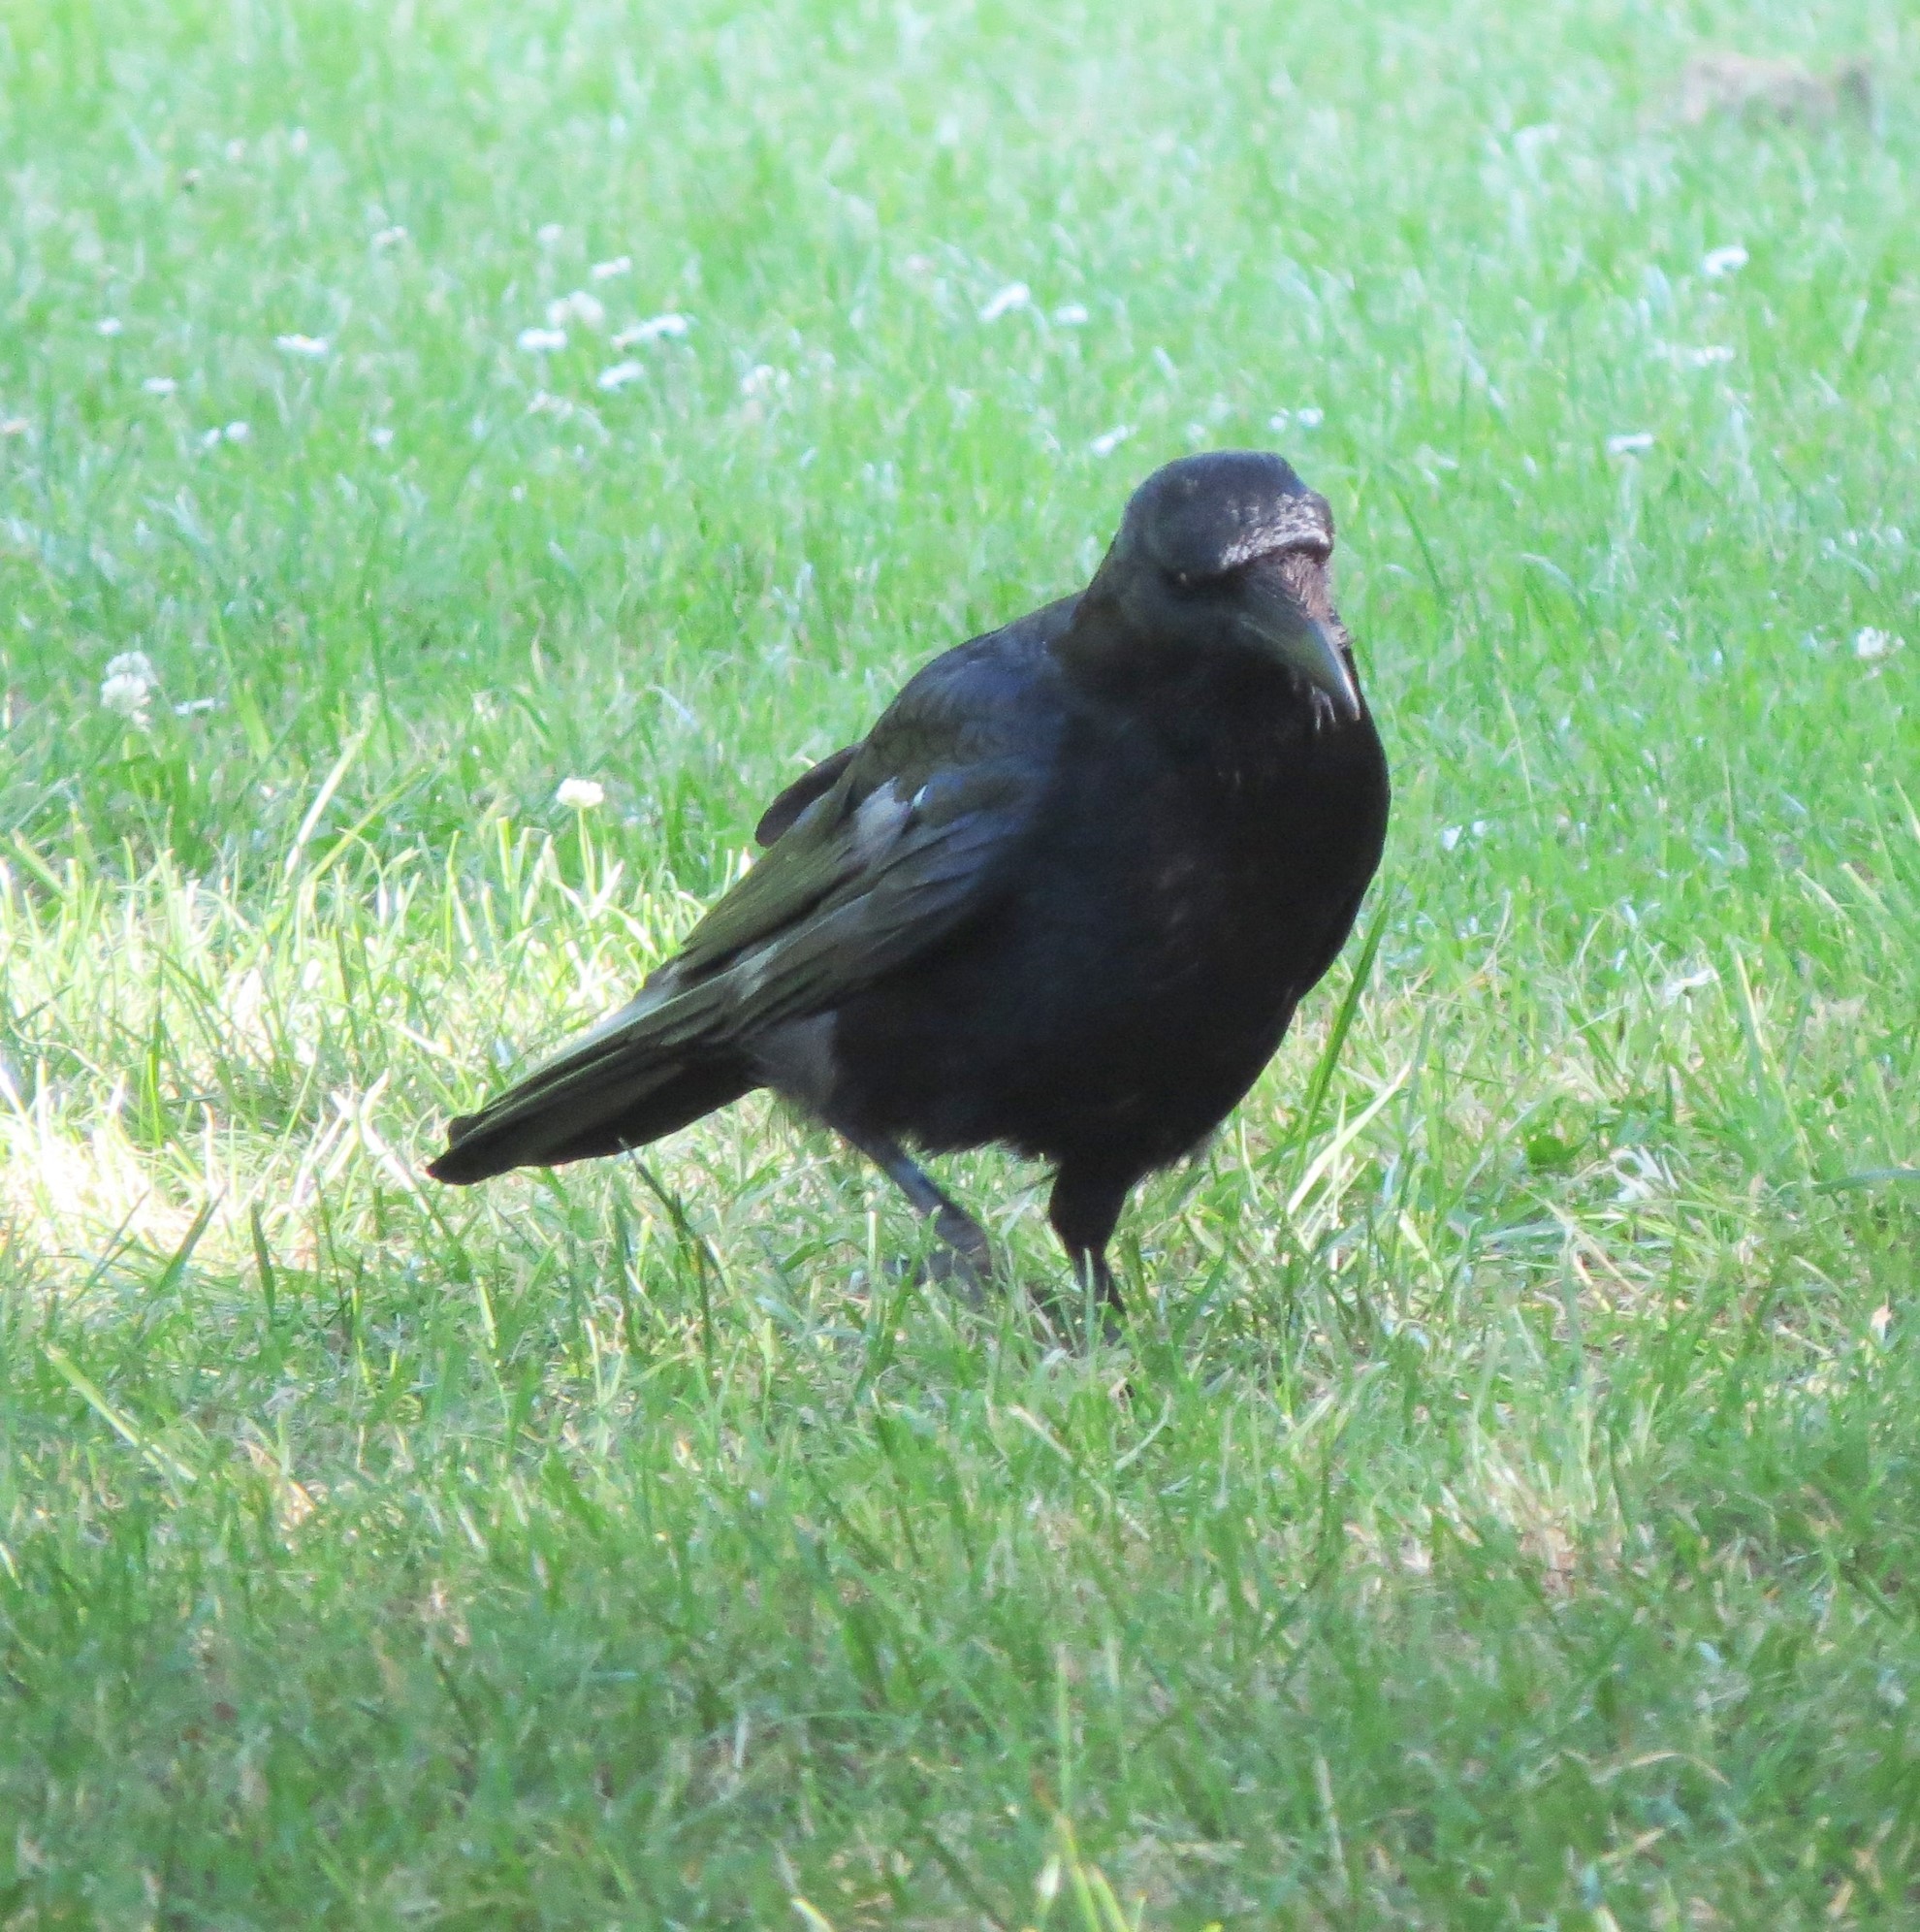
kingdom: Animalia
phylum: Chordata
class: Aves
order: Passeriformes
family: Corvidae
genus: Corvus
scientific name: Corvus corone
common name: Carrion crow
